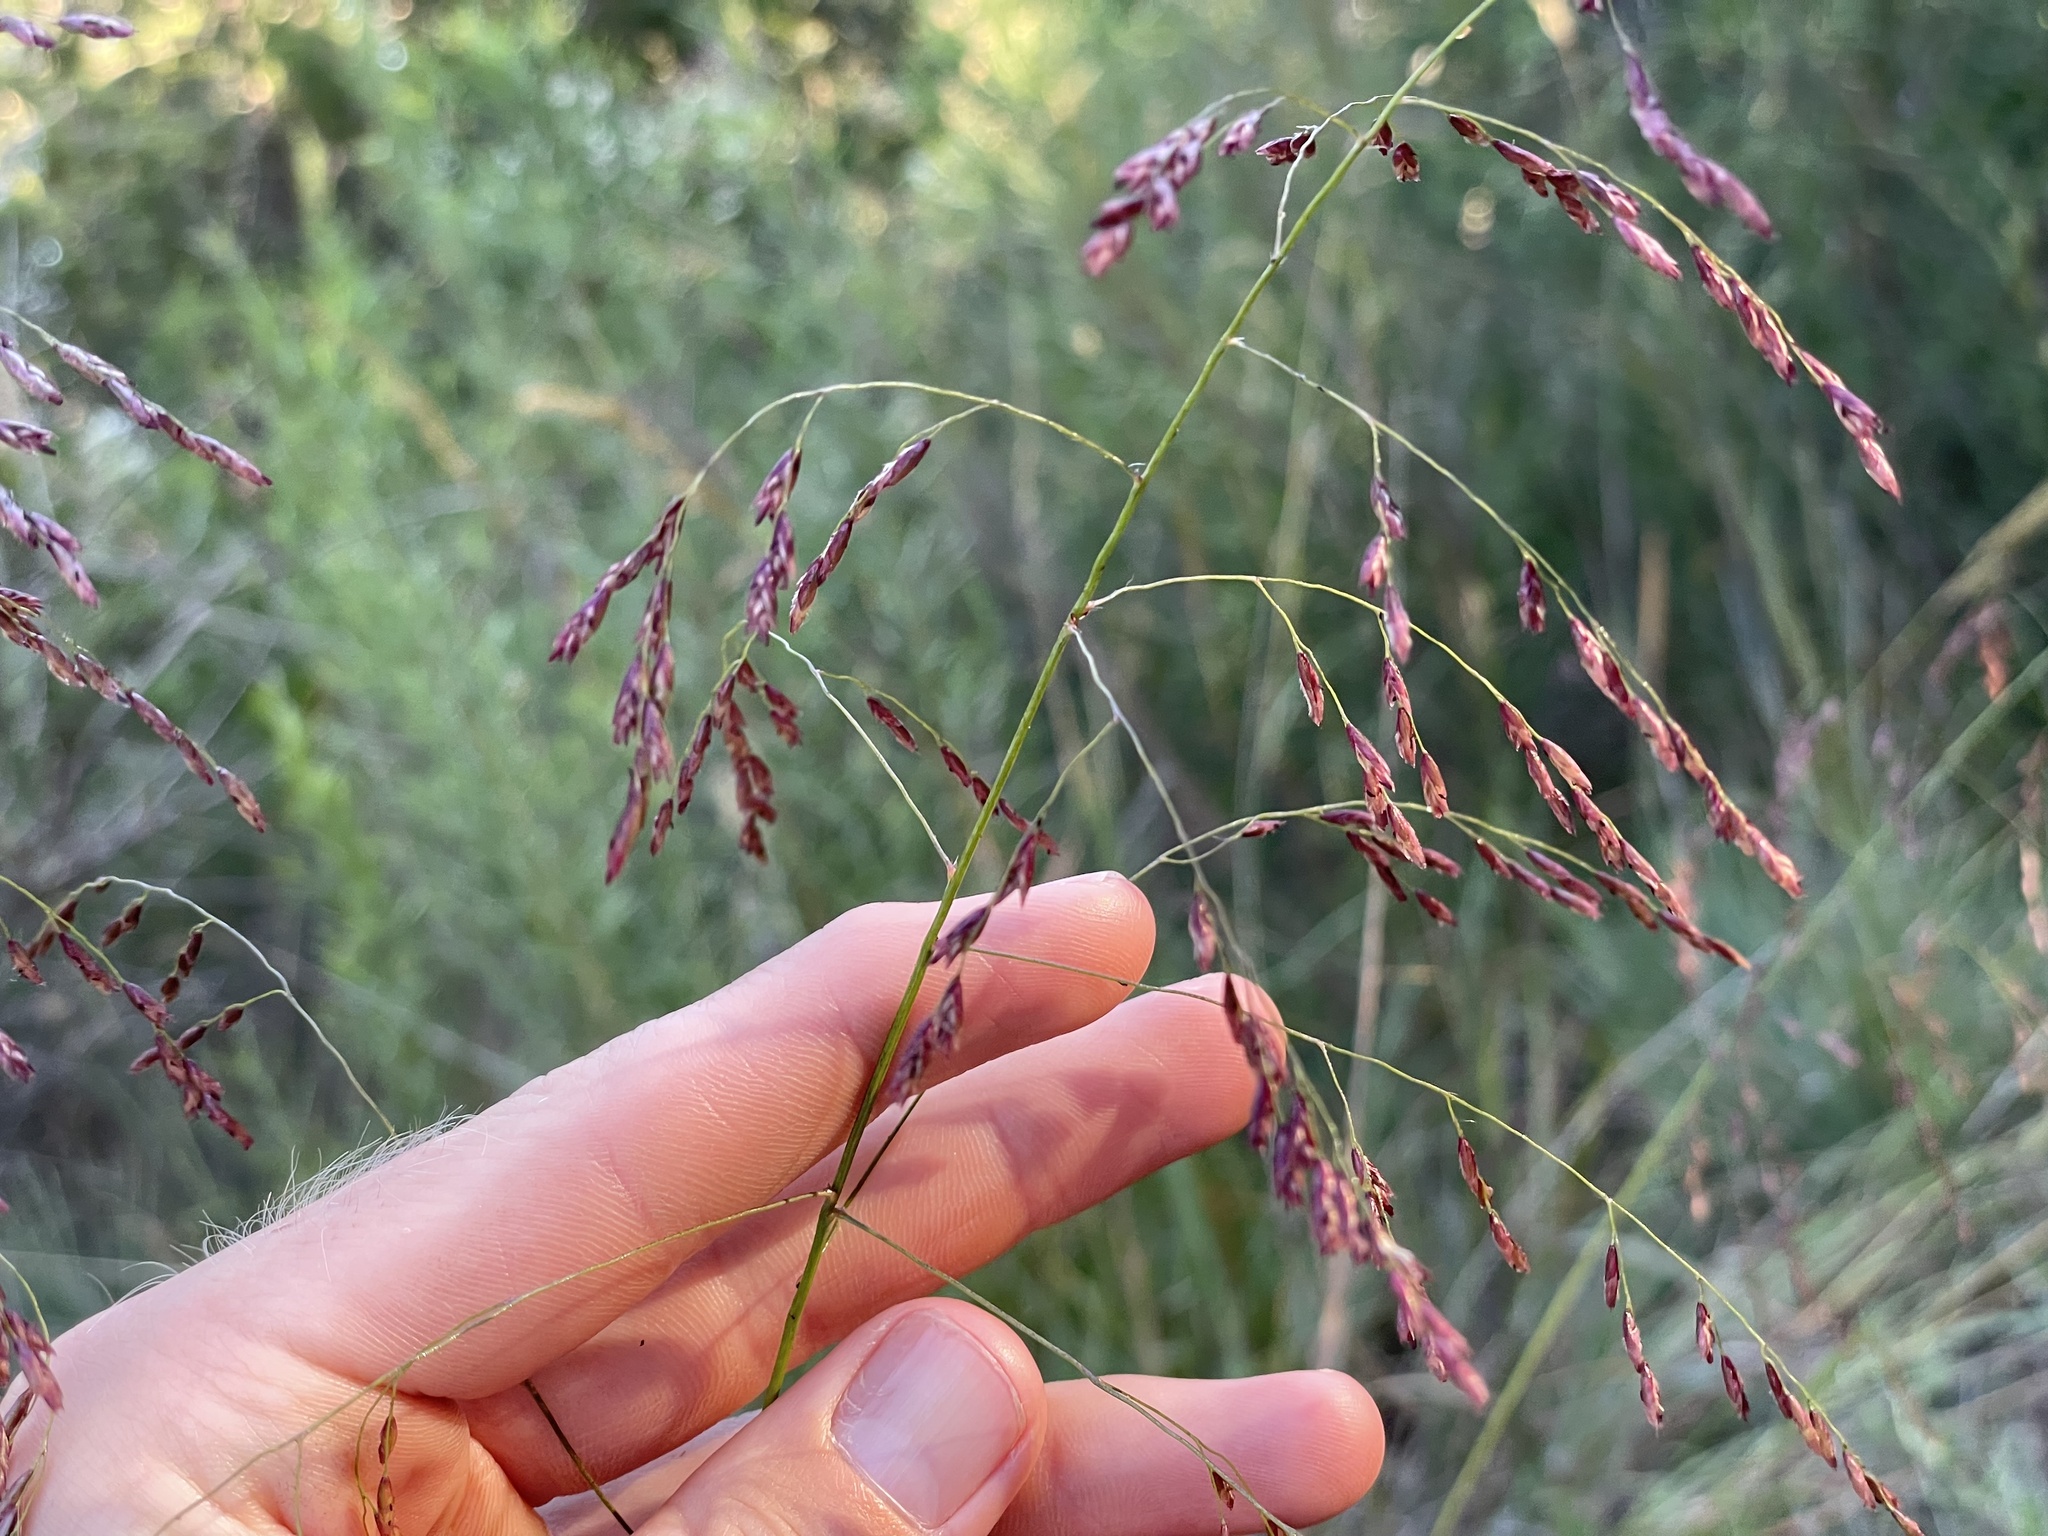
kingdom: Plantae
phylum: Tracheophyta
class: Liliopsida
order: Poales
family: Poaceae
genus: Tridens
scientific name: Tridens flavus
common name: Purpletop
